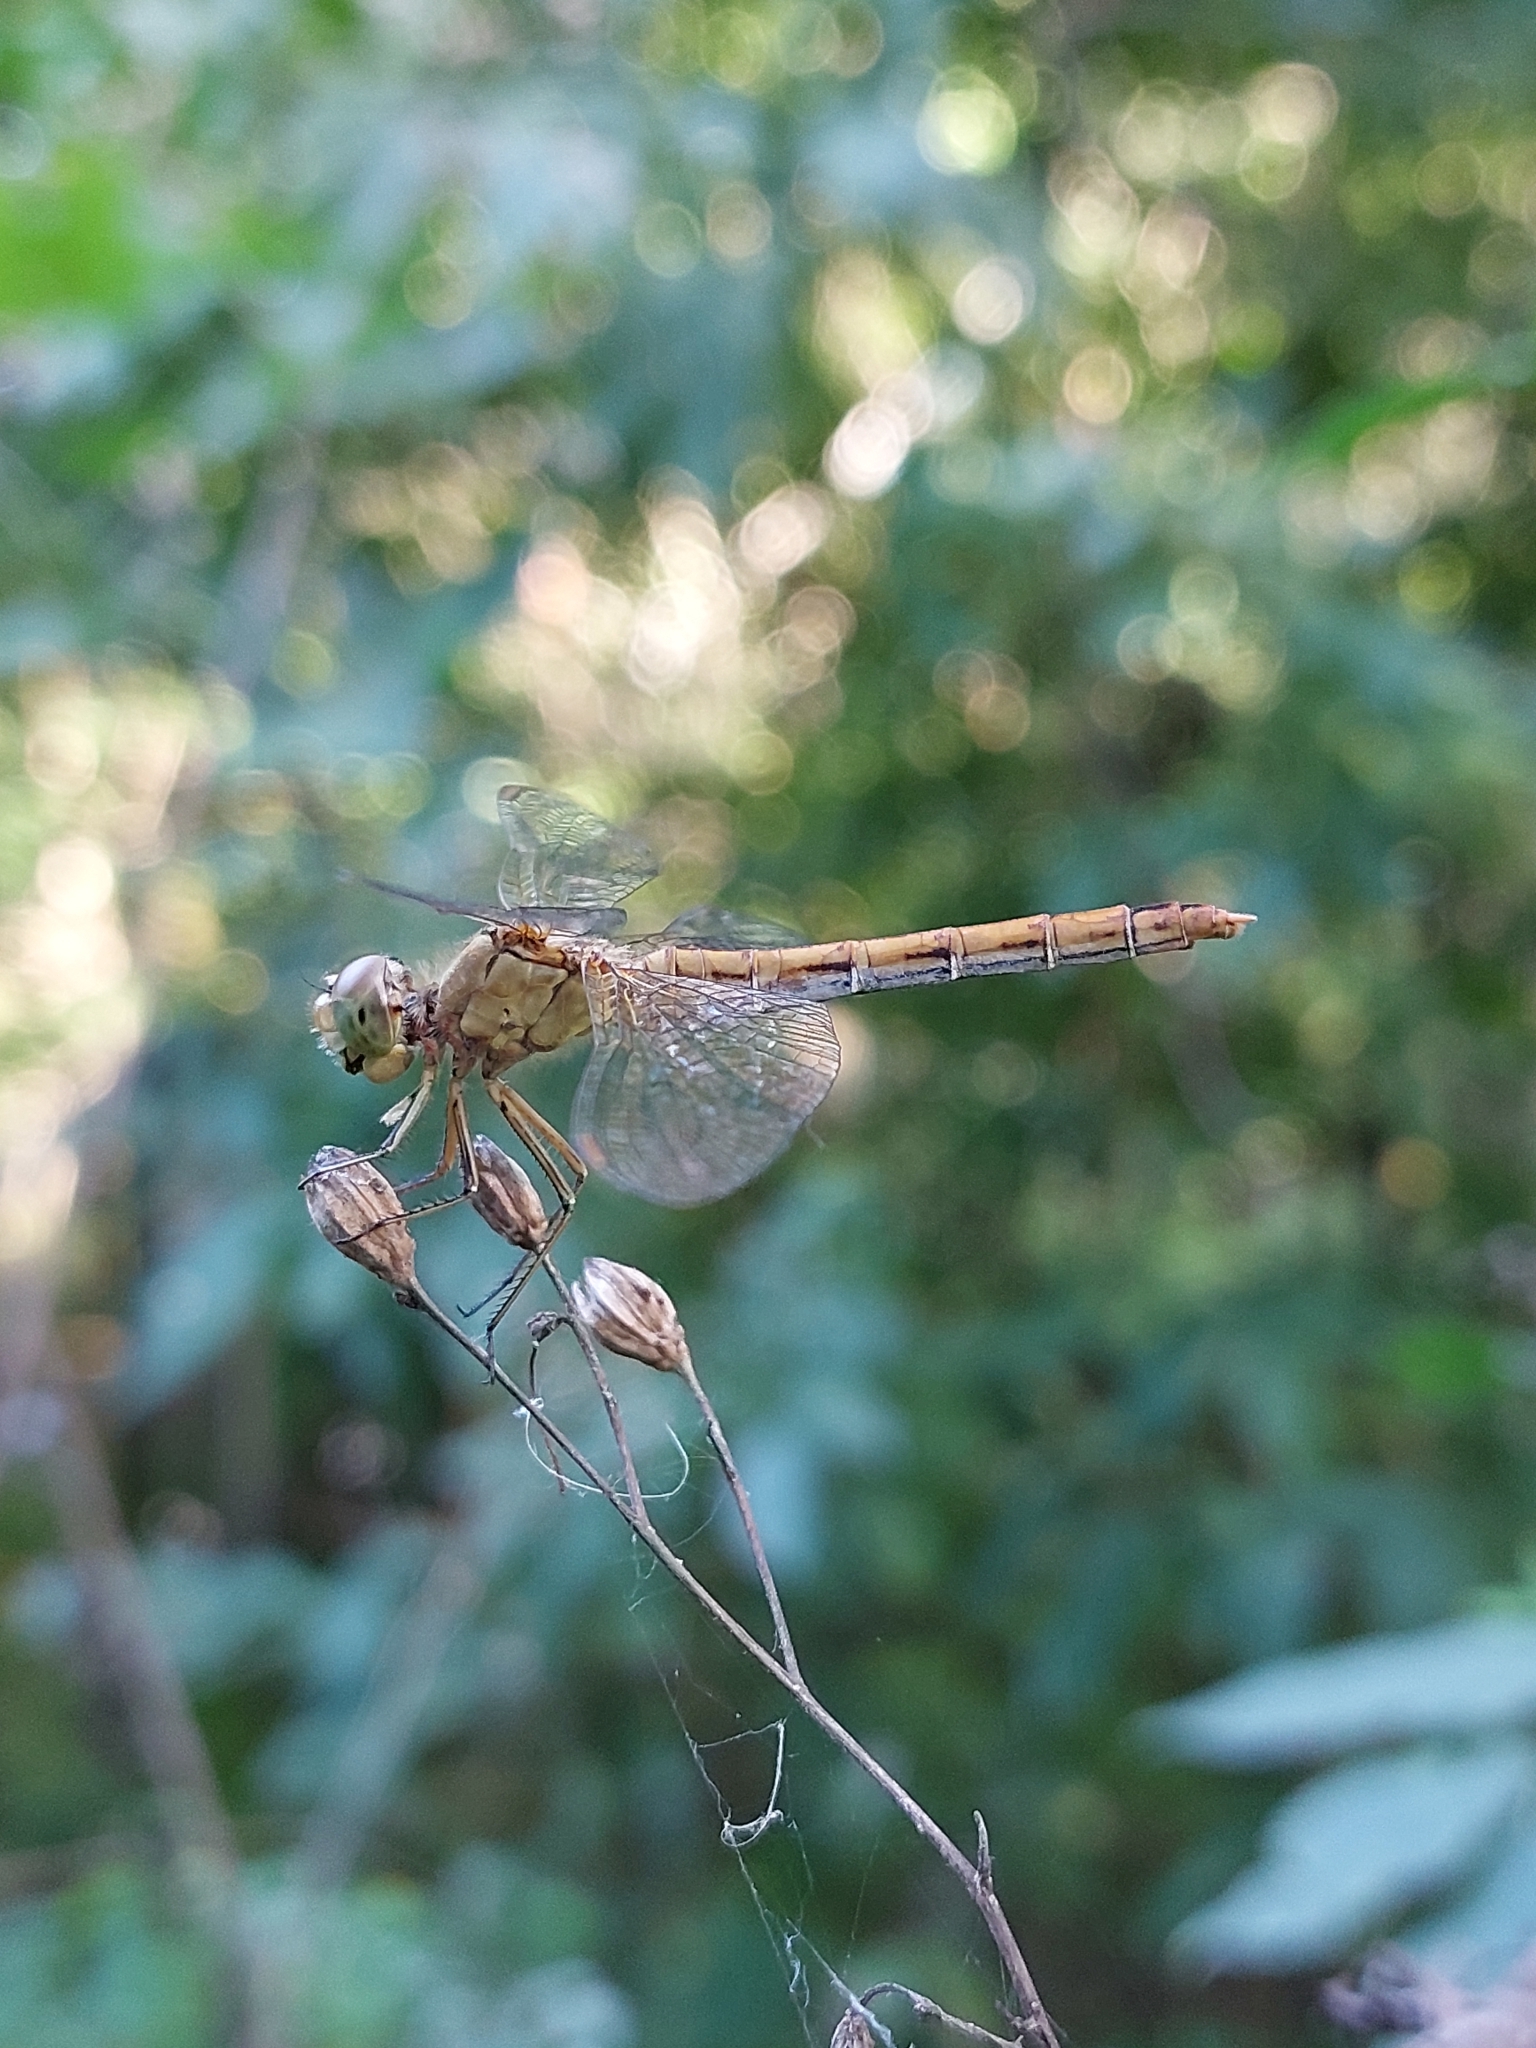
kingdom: Animalia
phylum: Arthropoda
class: Insecta
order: Odonata
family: Libellulidae
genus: Sympetrum
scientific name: Sympetrum meridionale
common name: Southern darter
